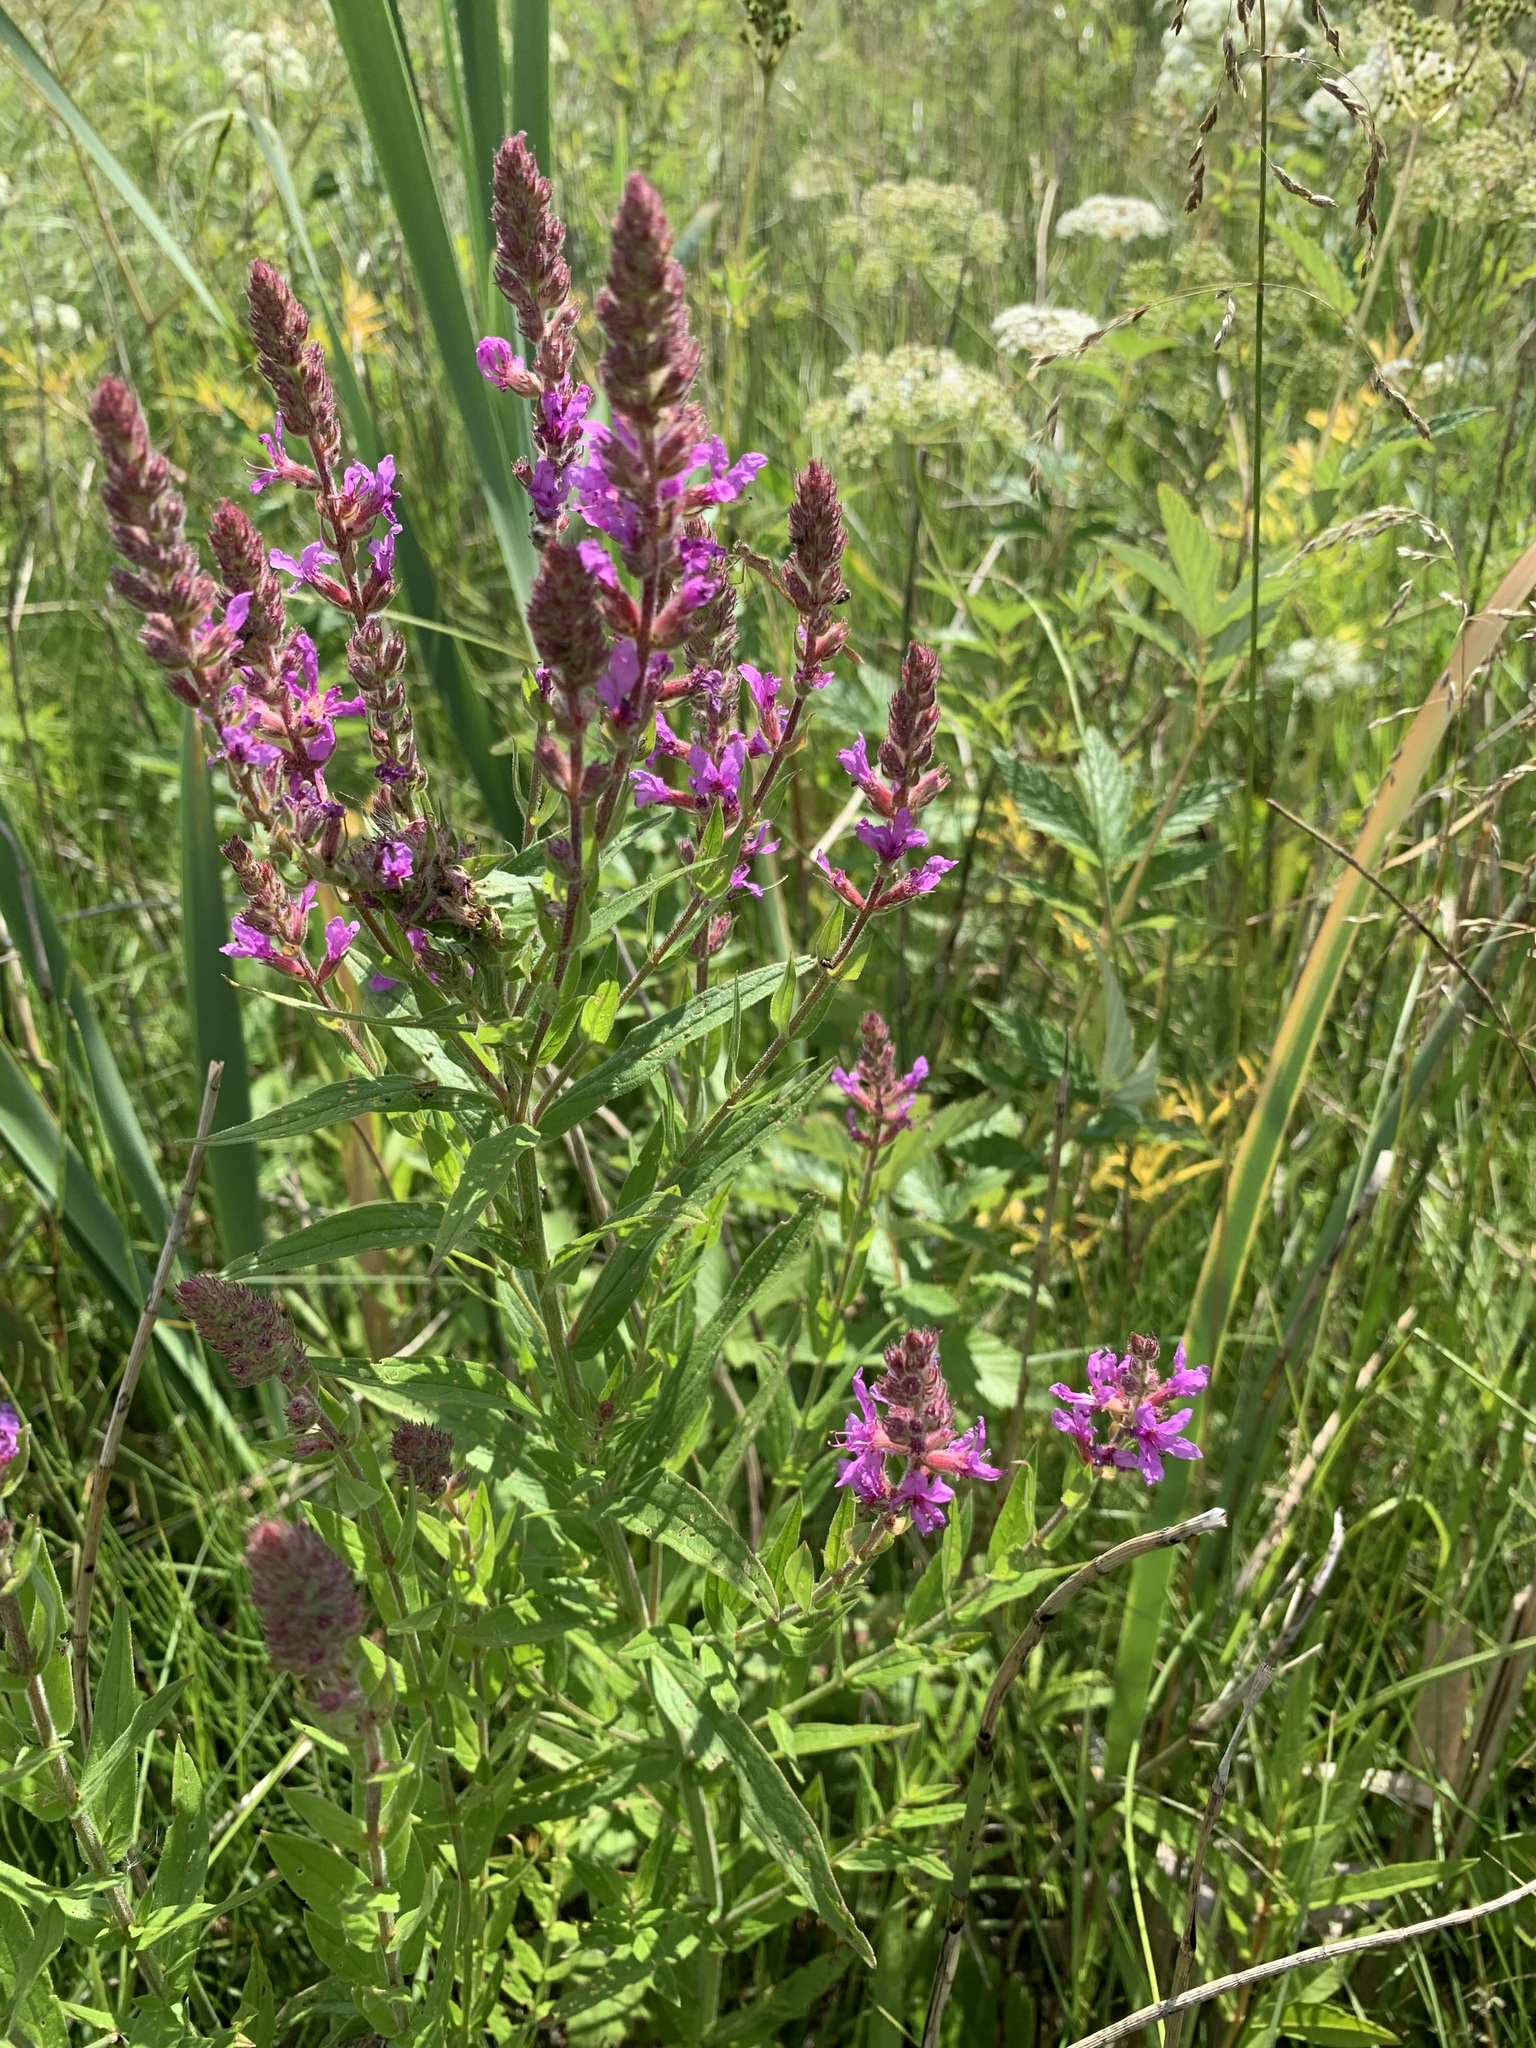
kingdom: Plantae
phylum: Tracheophyta
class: Magnoliopsida
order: Myrtales
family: Lythraceae
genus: Lythrum
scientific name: Lythrum salicaria
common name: Purple loosestrife
